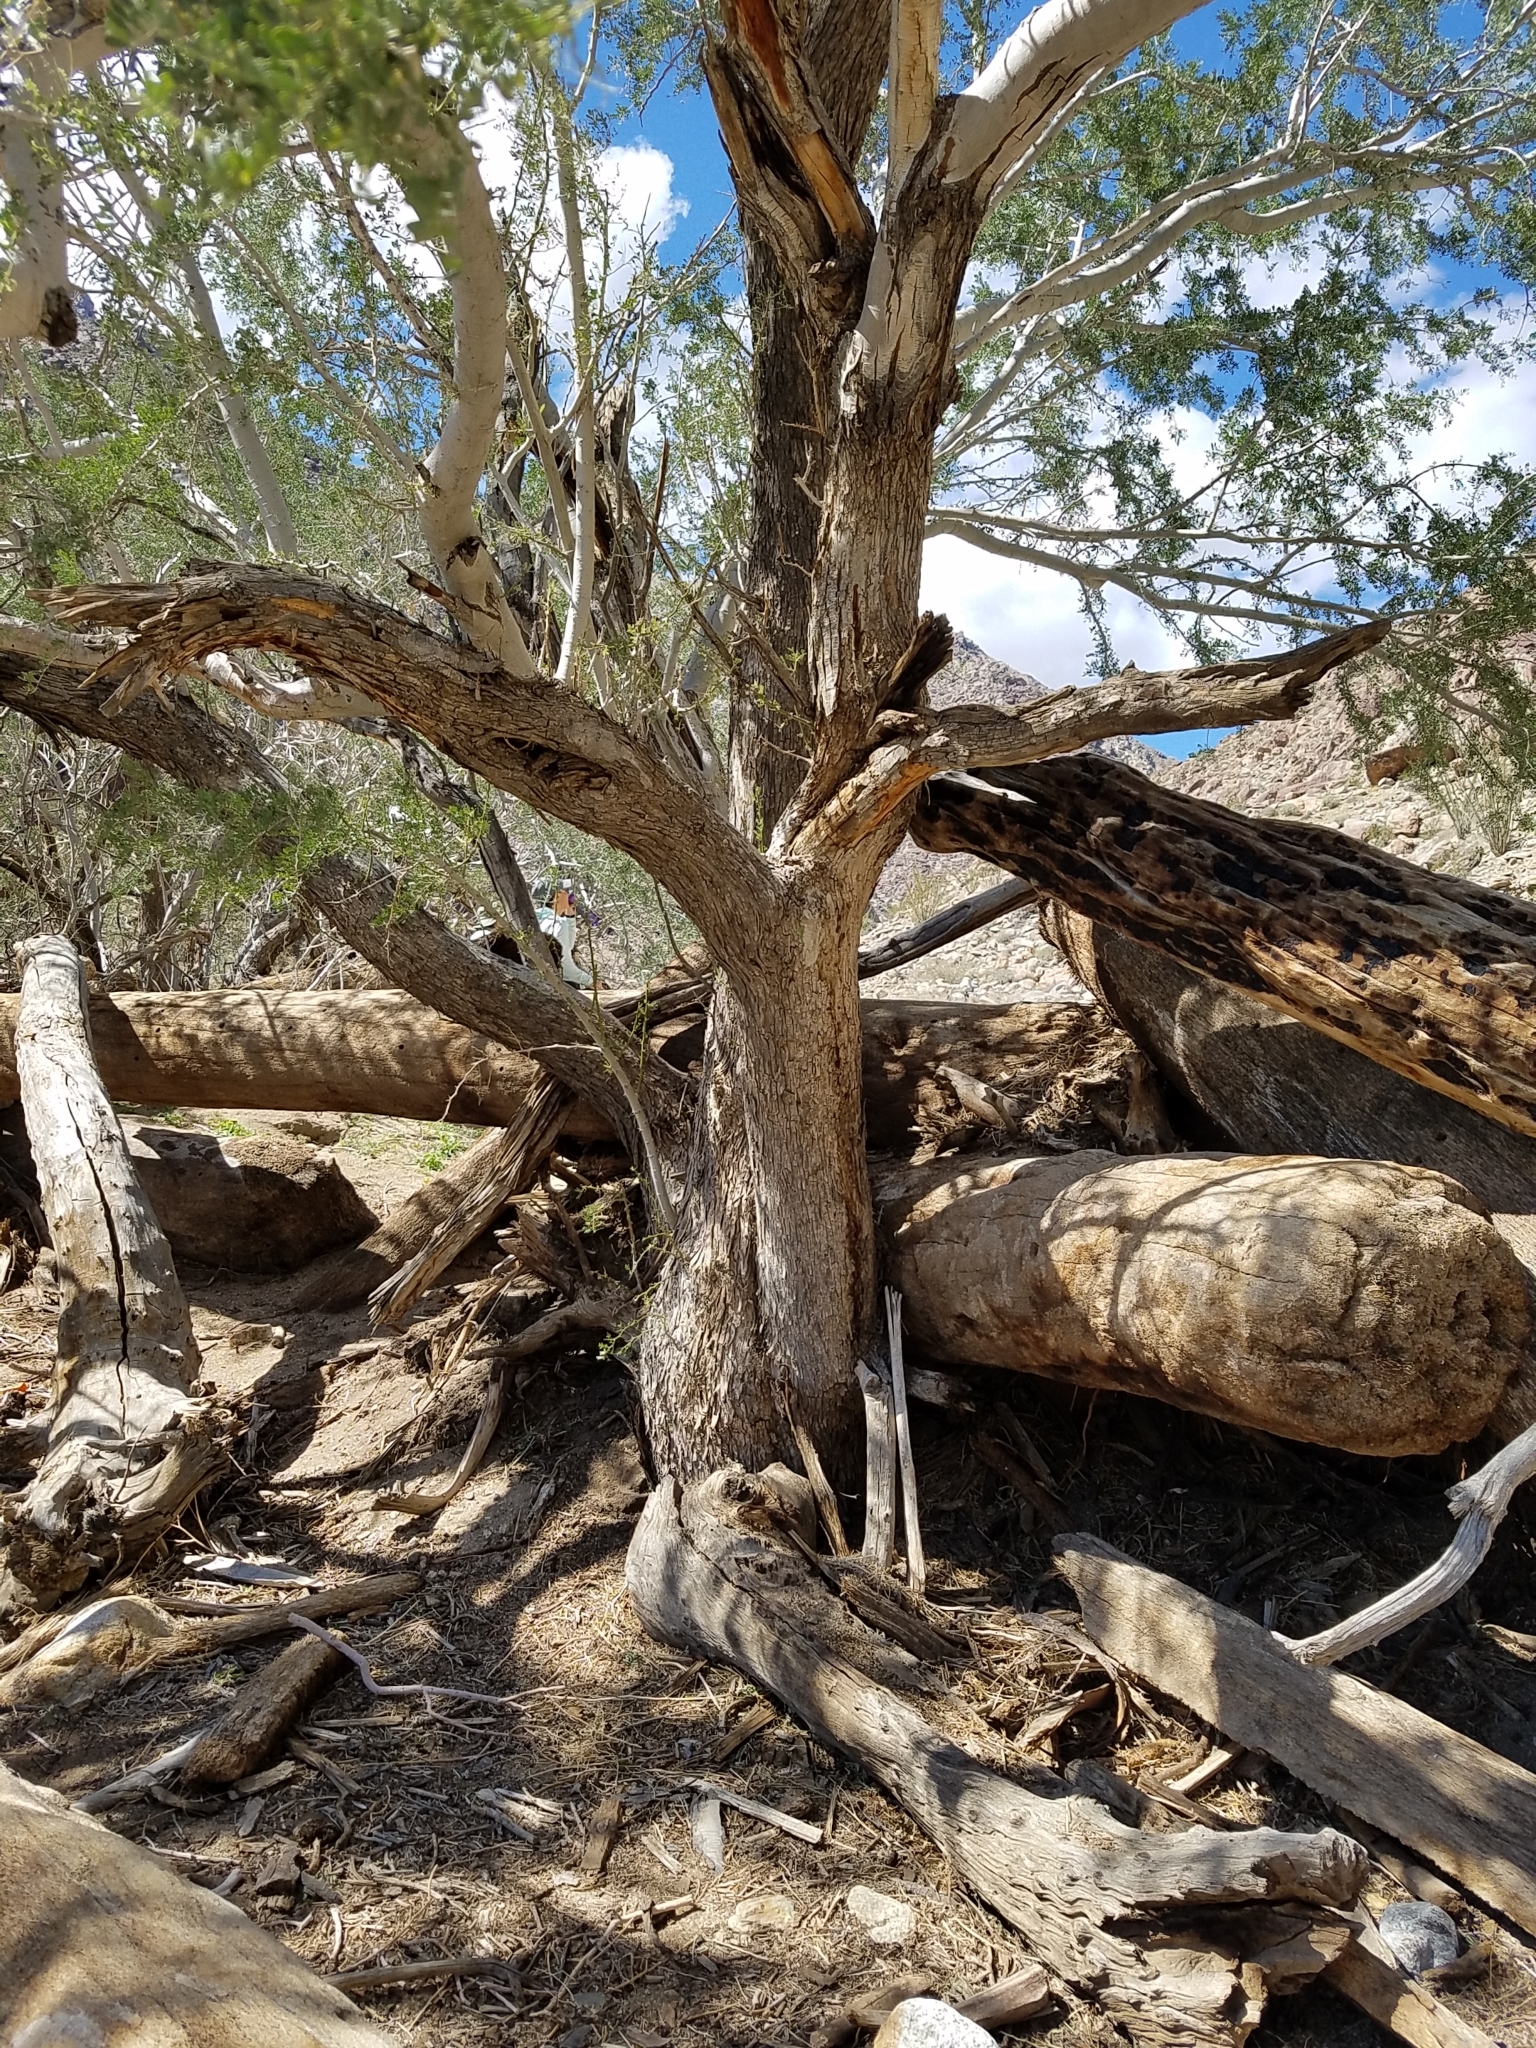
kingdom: Plantae
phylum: Tracheophyta
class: Magnoliopsida
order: Fabales
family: Fabaceae
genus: Olneya
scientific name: Olneya tesota
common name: Desert ironwood
